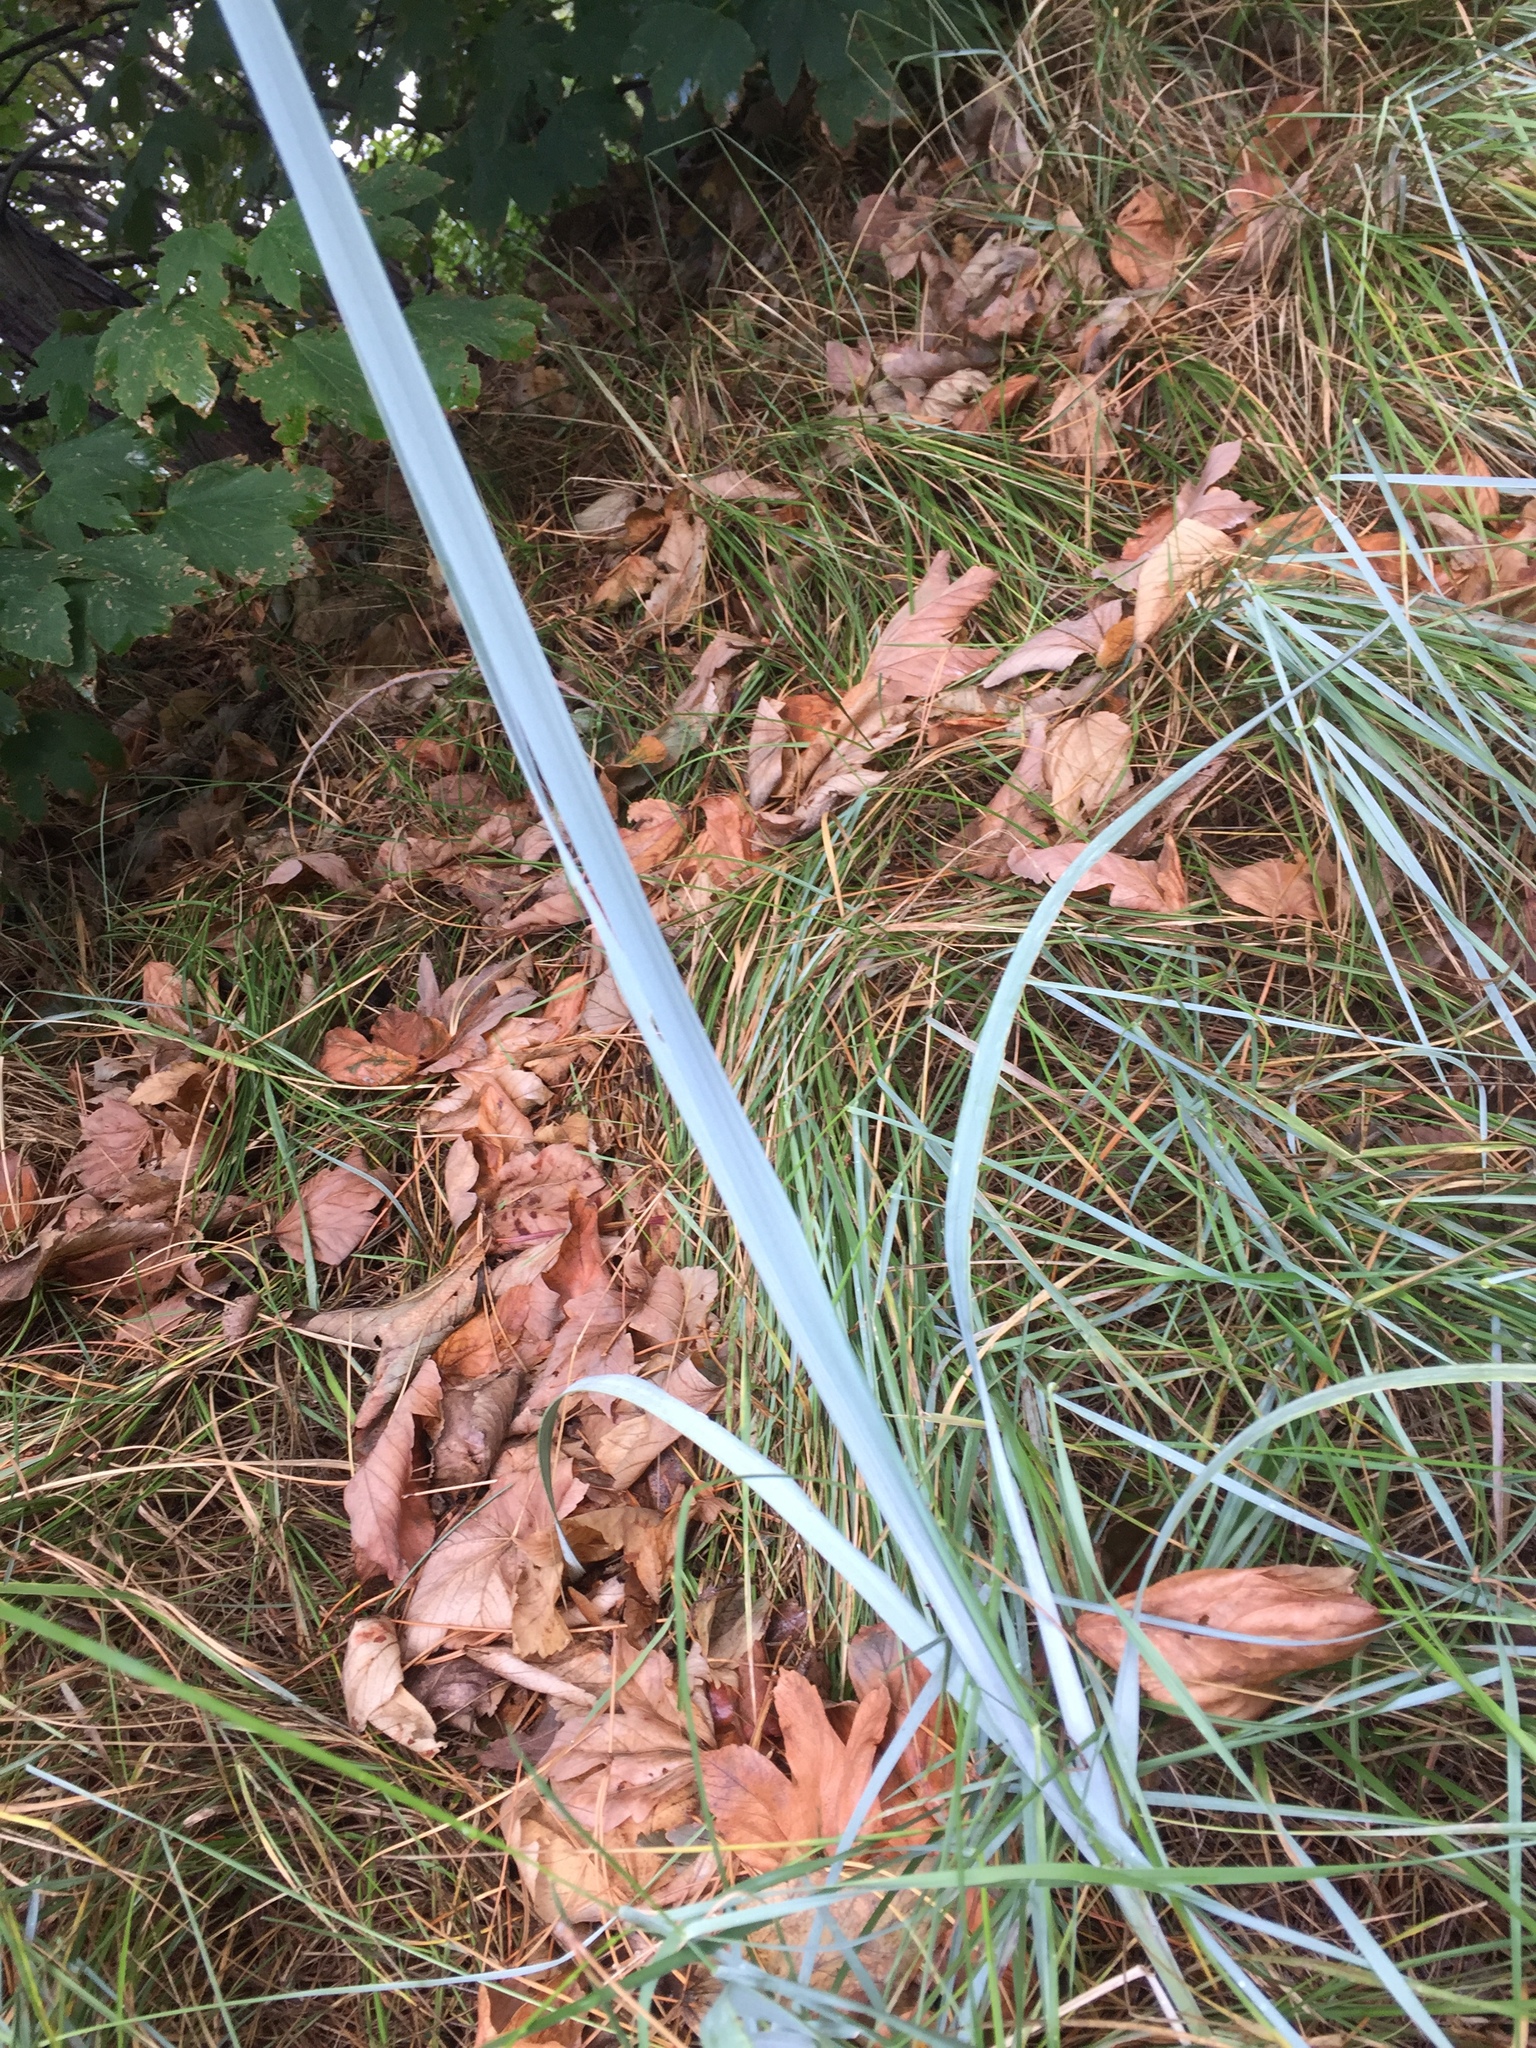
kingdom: Plantae
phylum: Tracheophyta
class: Liliopsida
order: Poales
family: Poaceae
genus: Leymus
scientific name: Leymus arenarius
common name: Lyme-grass
